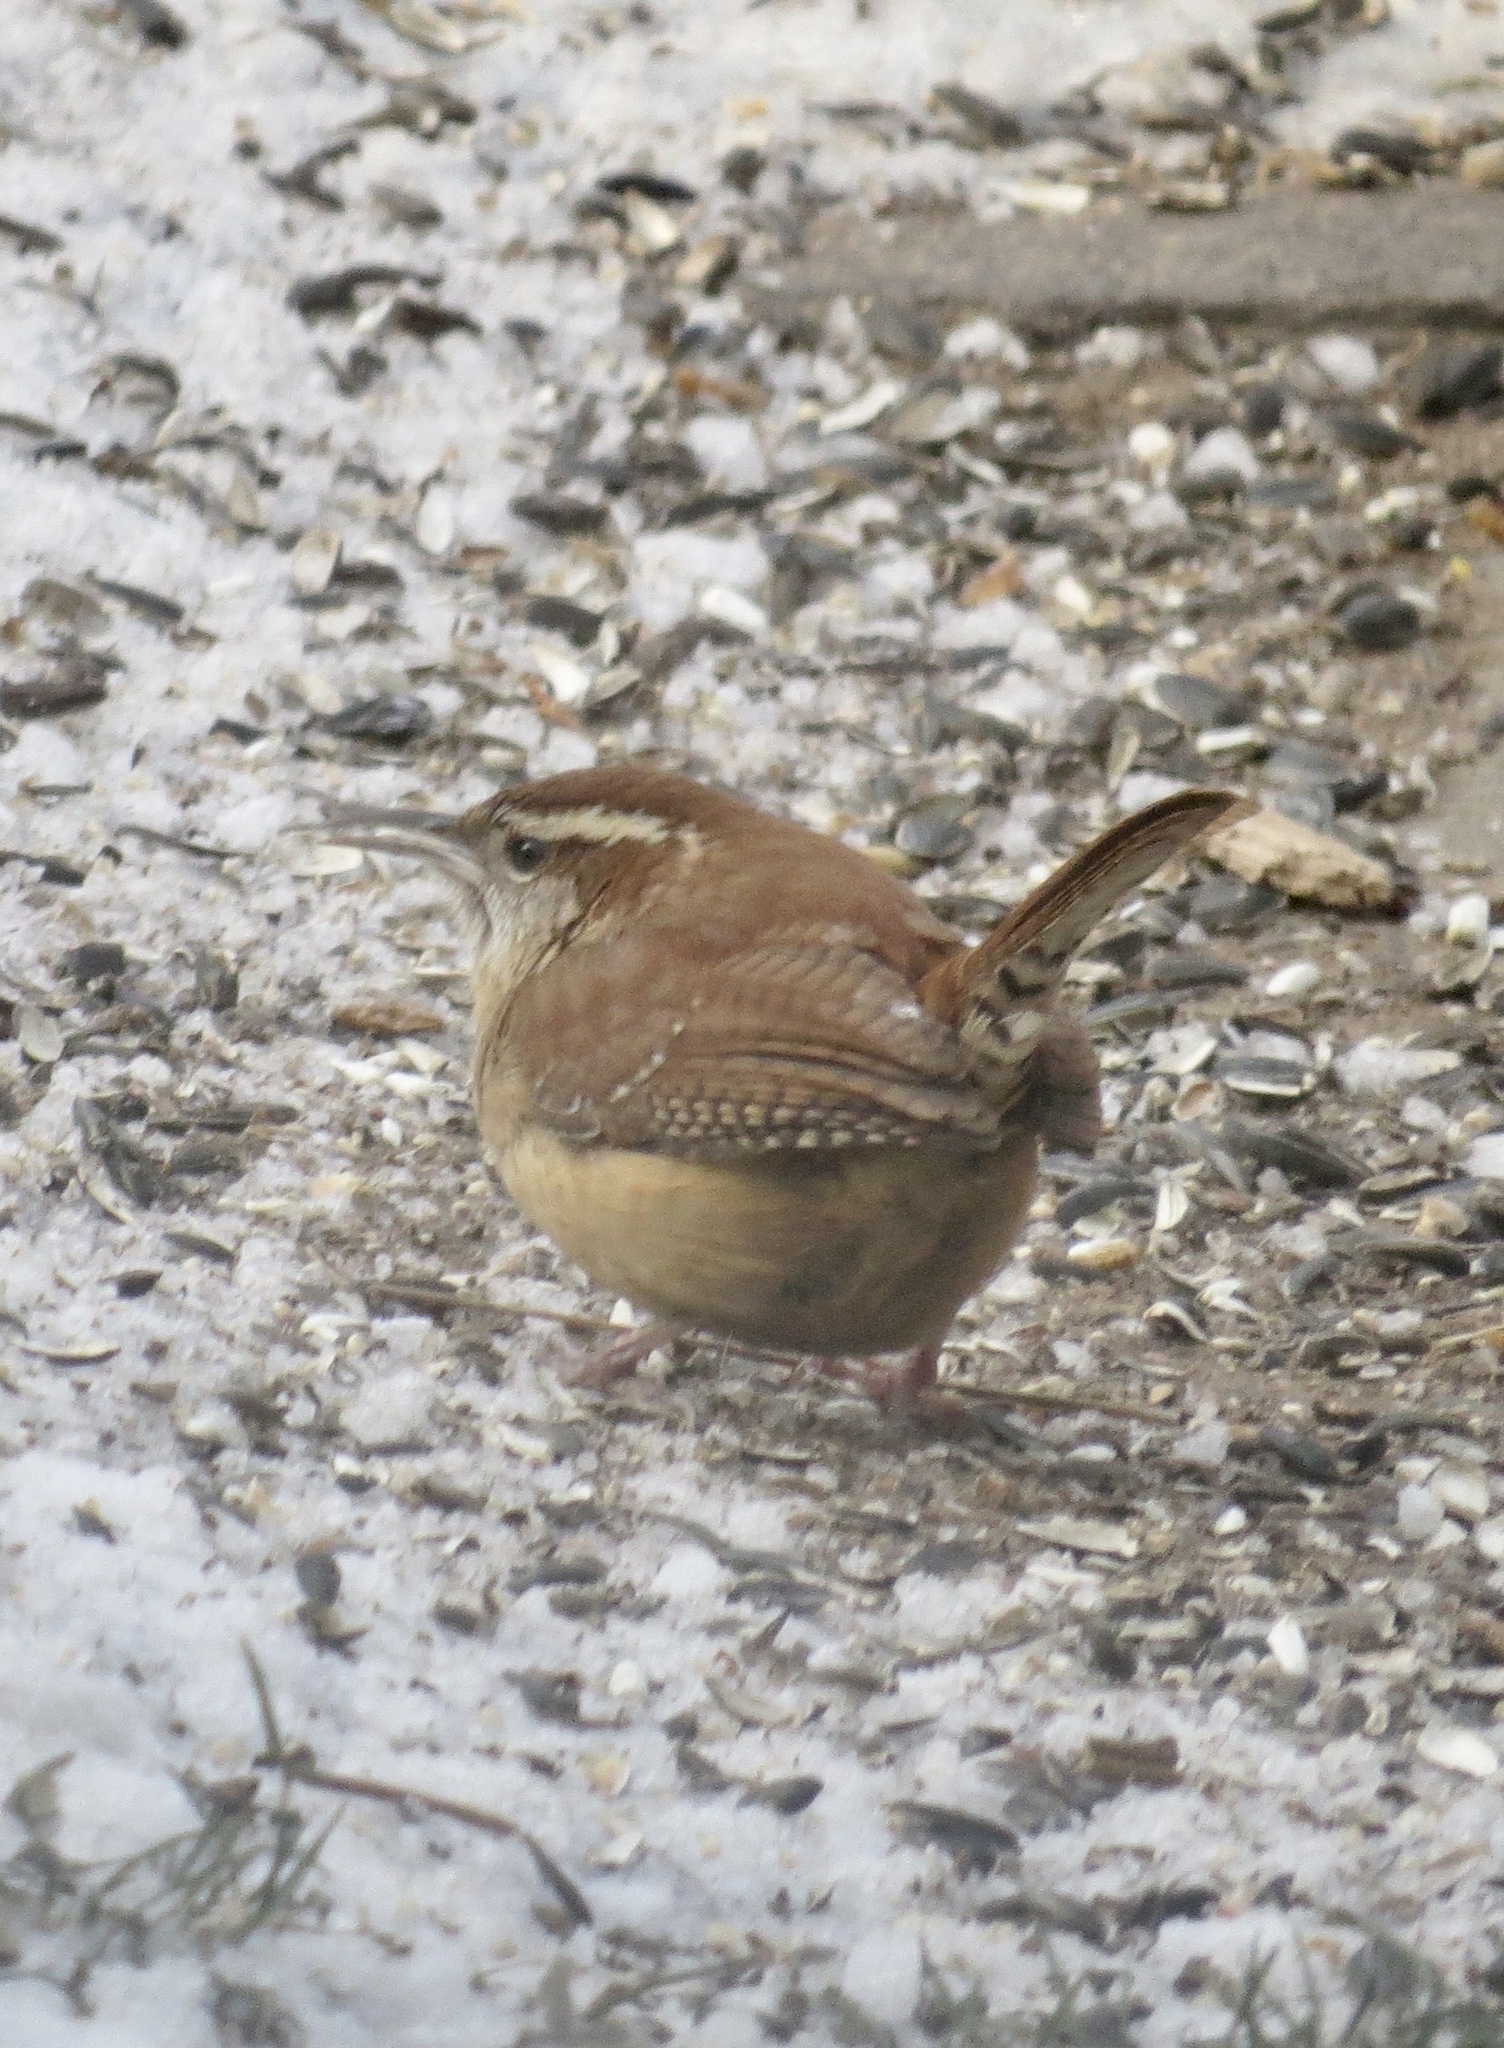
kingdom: Animalia
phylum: Chordata
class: Aves
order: Passeriformes
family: Troglodytidae
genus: Thryothorus
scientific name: Thryothorus ludovicianus
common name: Carolina wren
